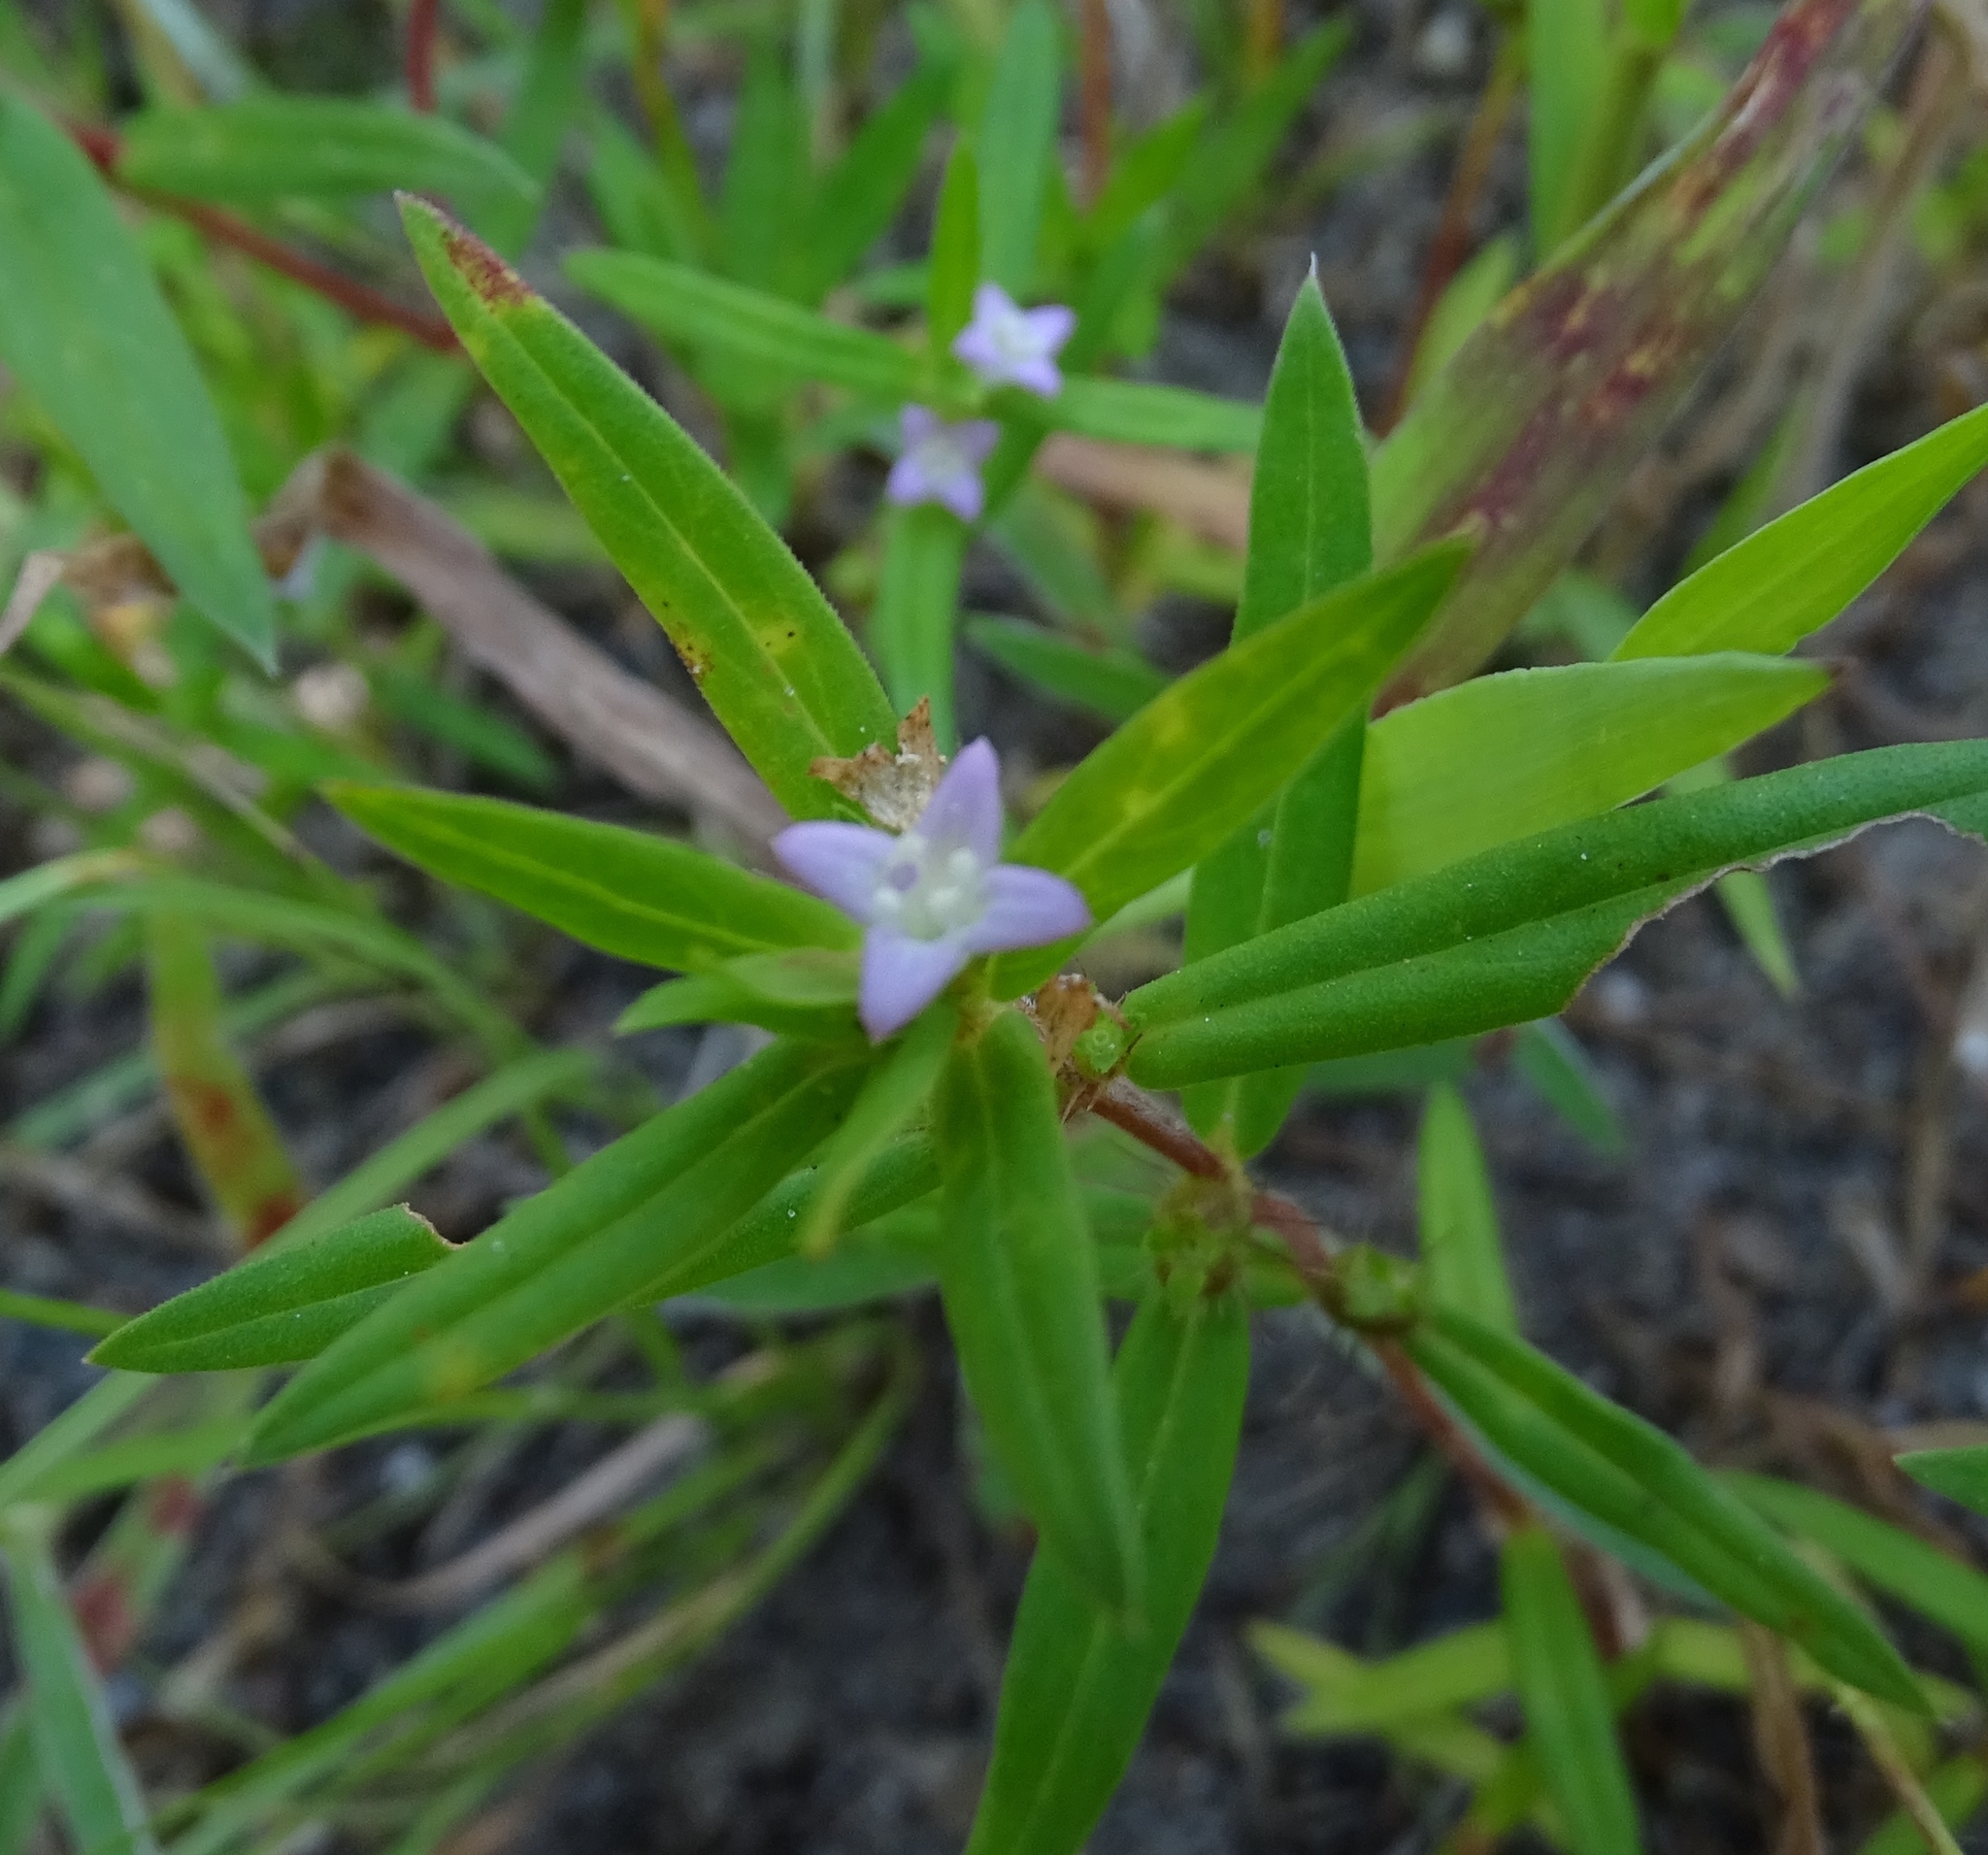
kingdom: Plantae
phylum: Tracheophyta
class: Magnoliopsida
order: Gentianales
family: Rubiaceae
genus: Hexasepalum
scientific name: Hexasepalum teres
